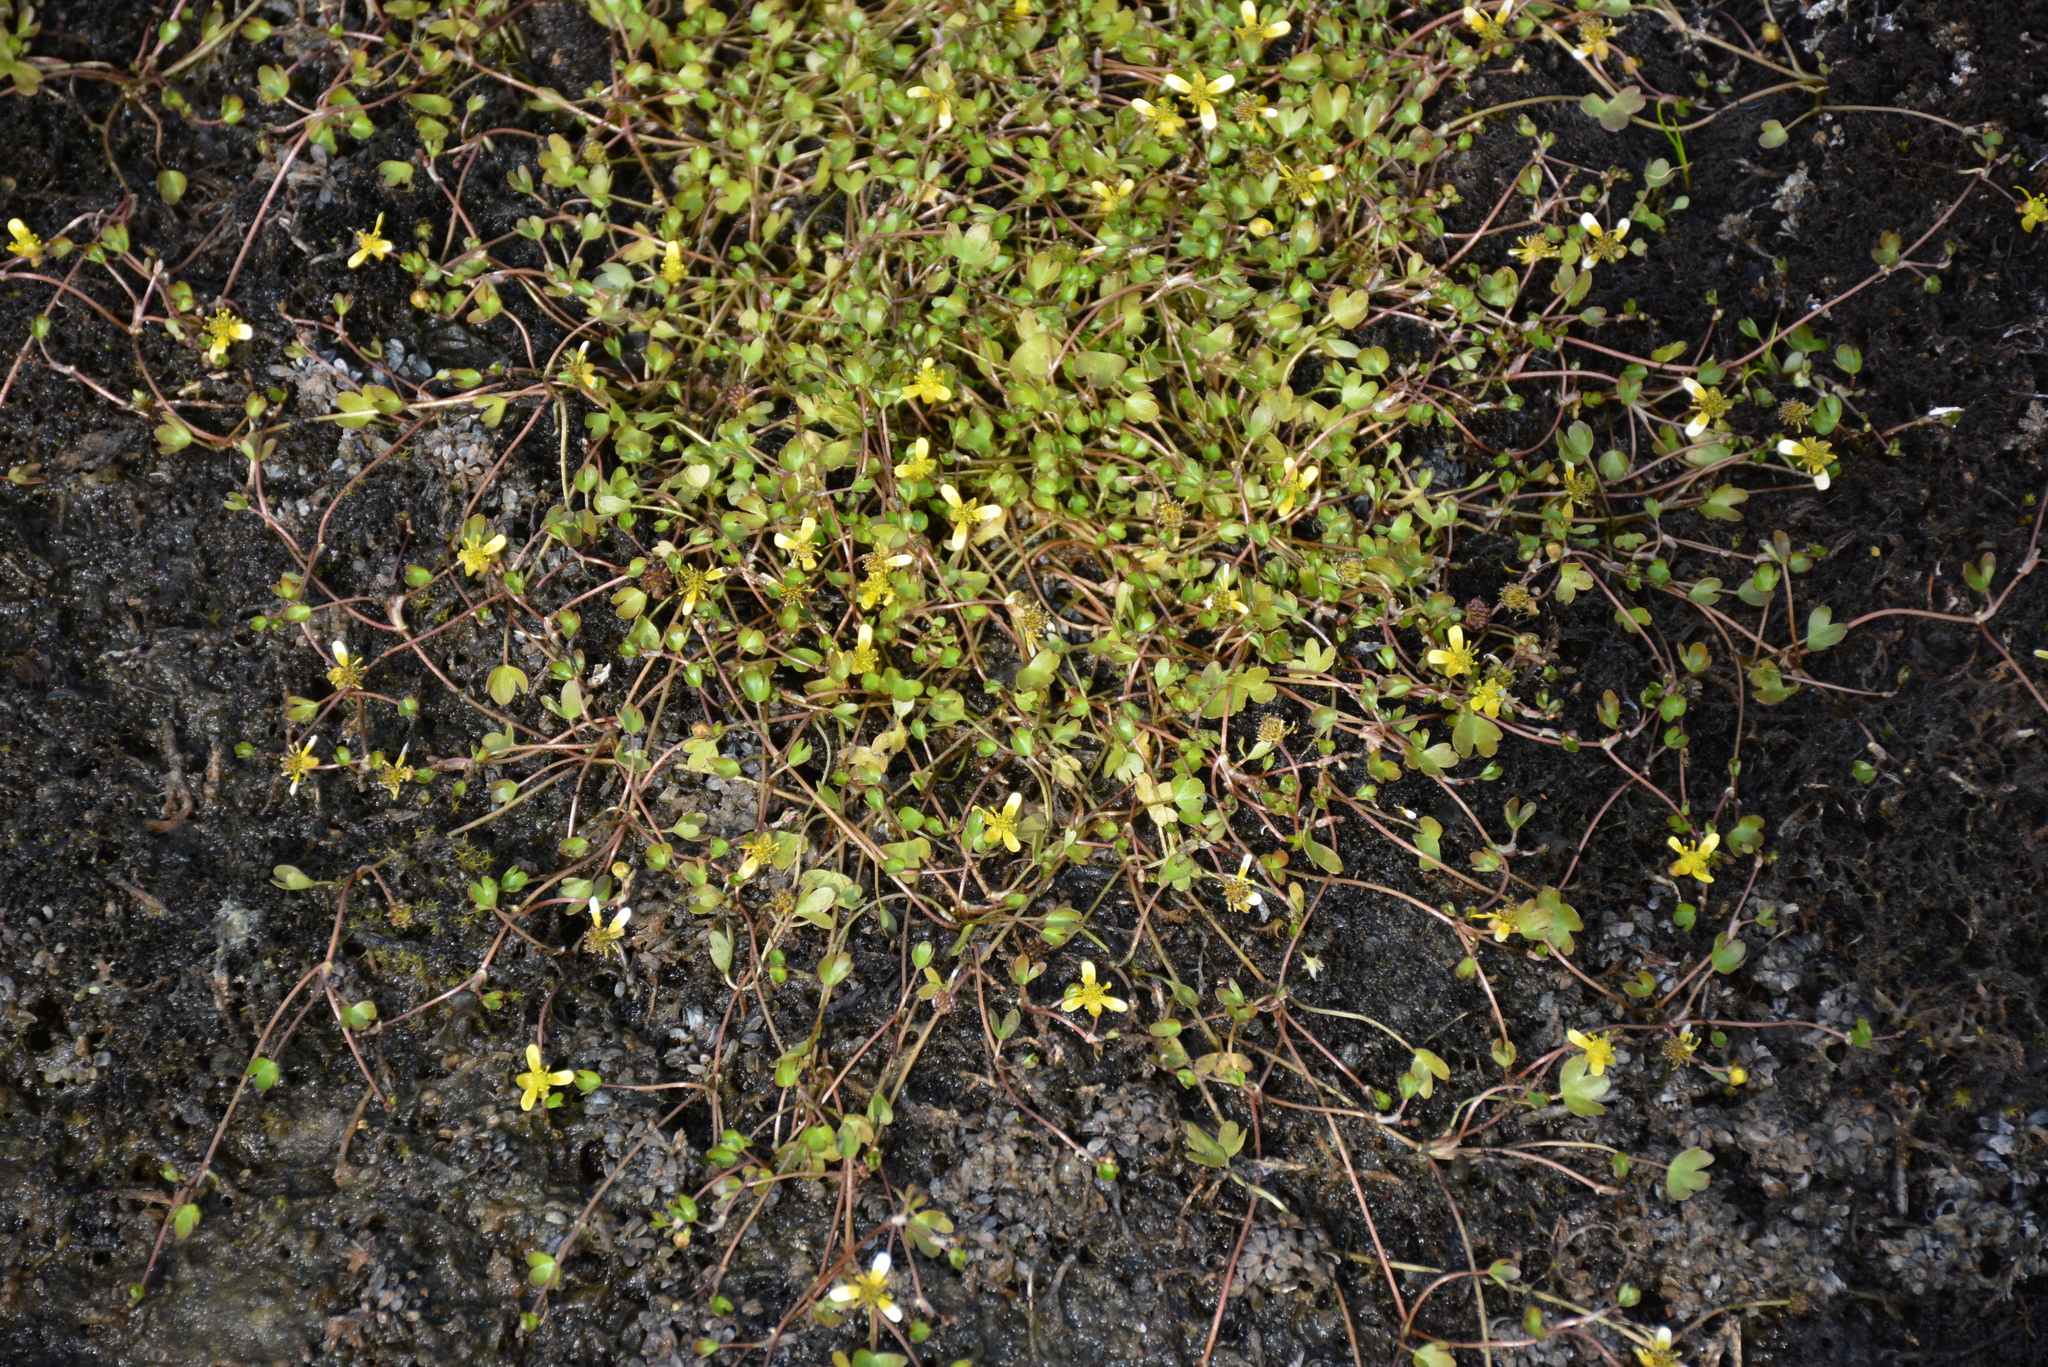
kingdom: Plantae
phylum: Tracheophyta
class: Magnoliopsida
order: Ranunculales
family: Ranunculaceae
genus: Ranunculus
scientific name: Ranunculus hyperboreus
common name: Arctic buttercup
